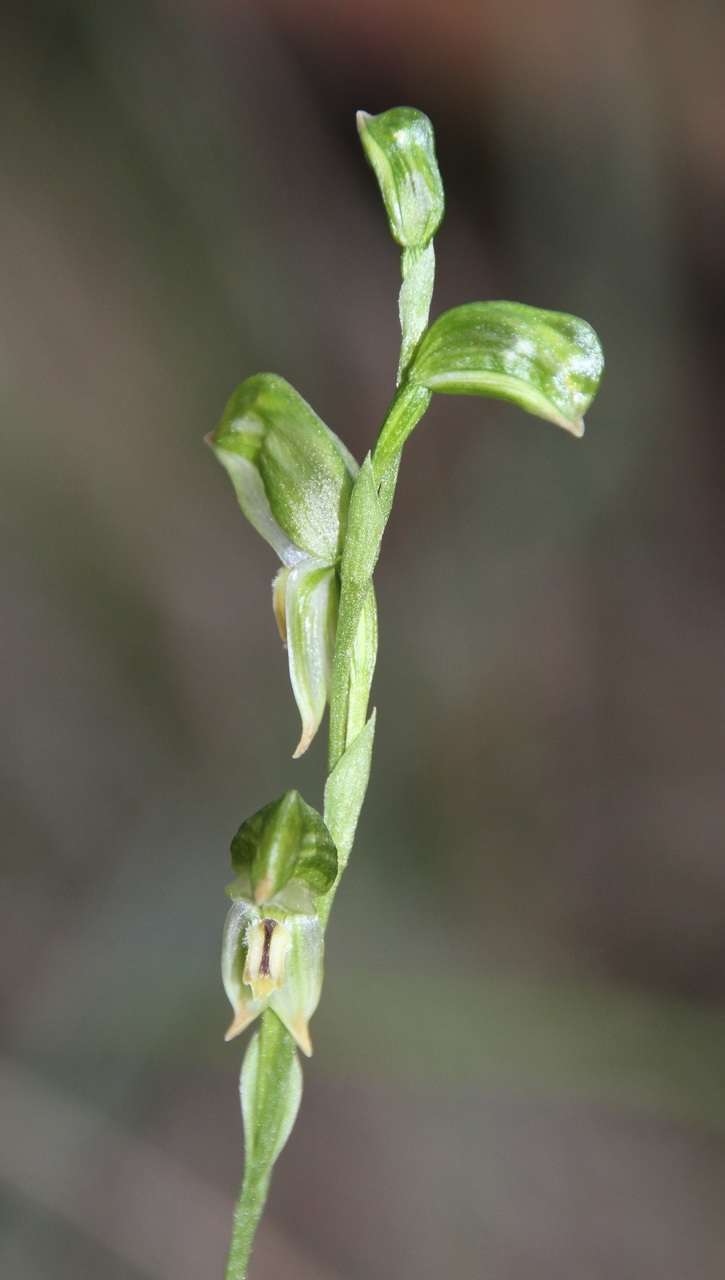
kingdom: Plantae
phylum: Tracheophyta
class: Liliopsida
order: Asparagales
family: Orchidaceae
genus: Pterostylis
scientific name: Pterostylis melagramma
